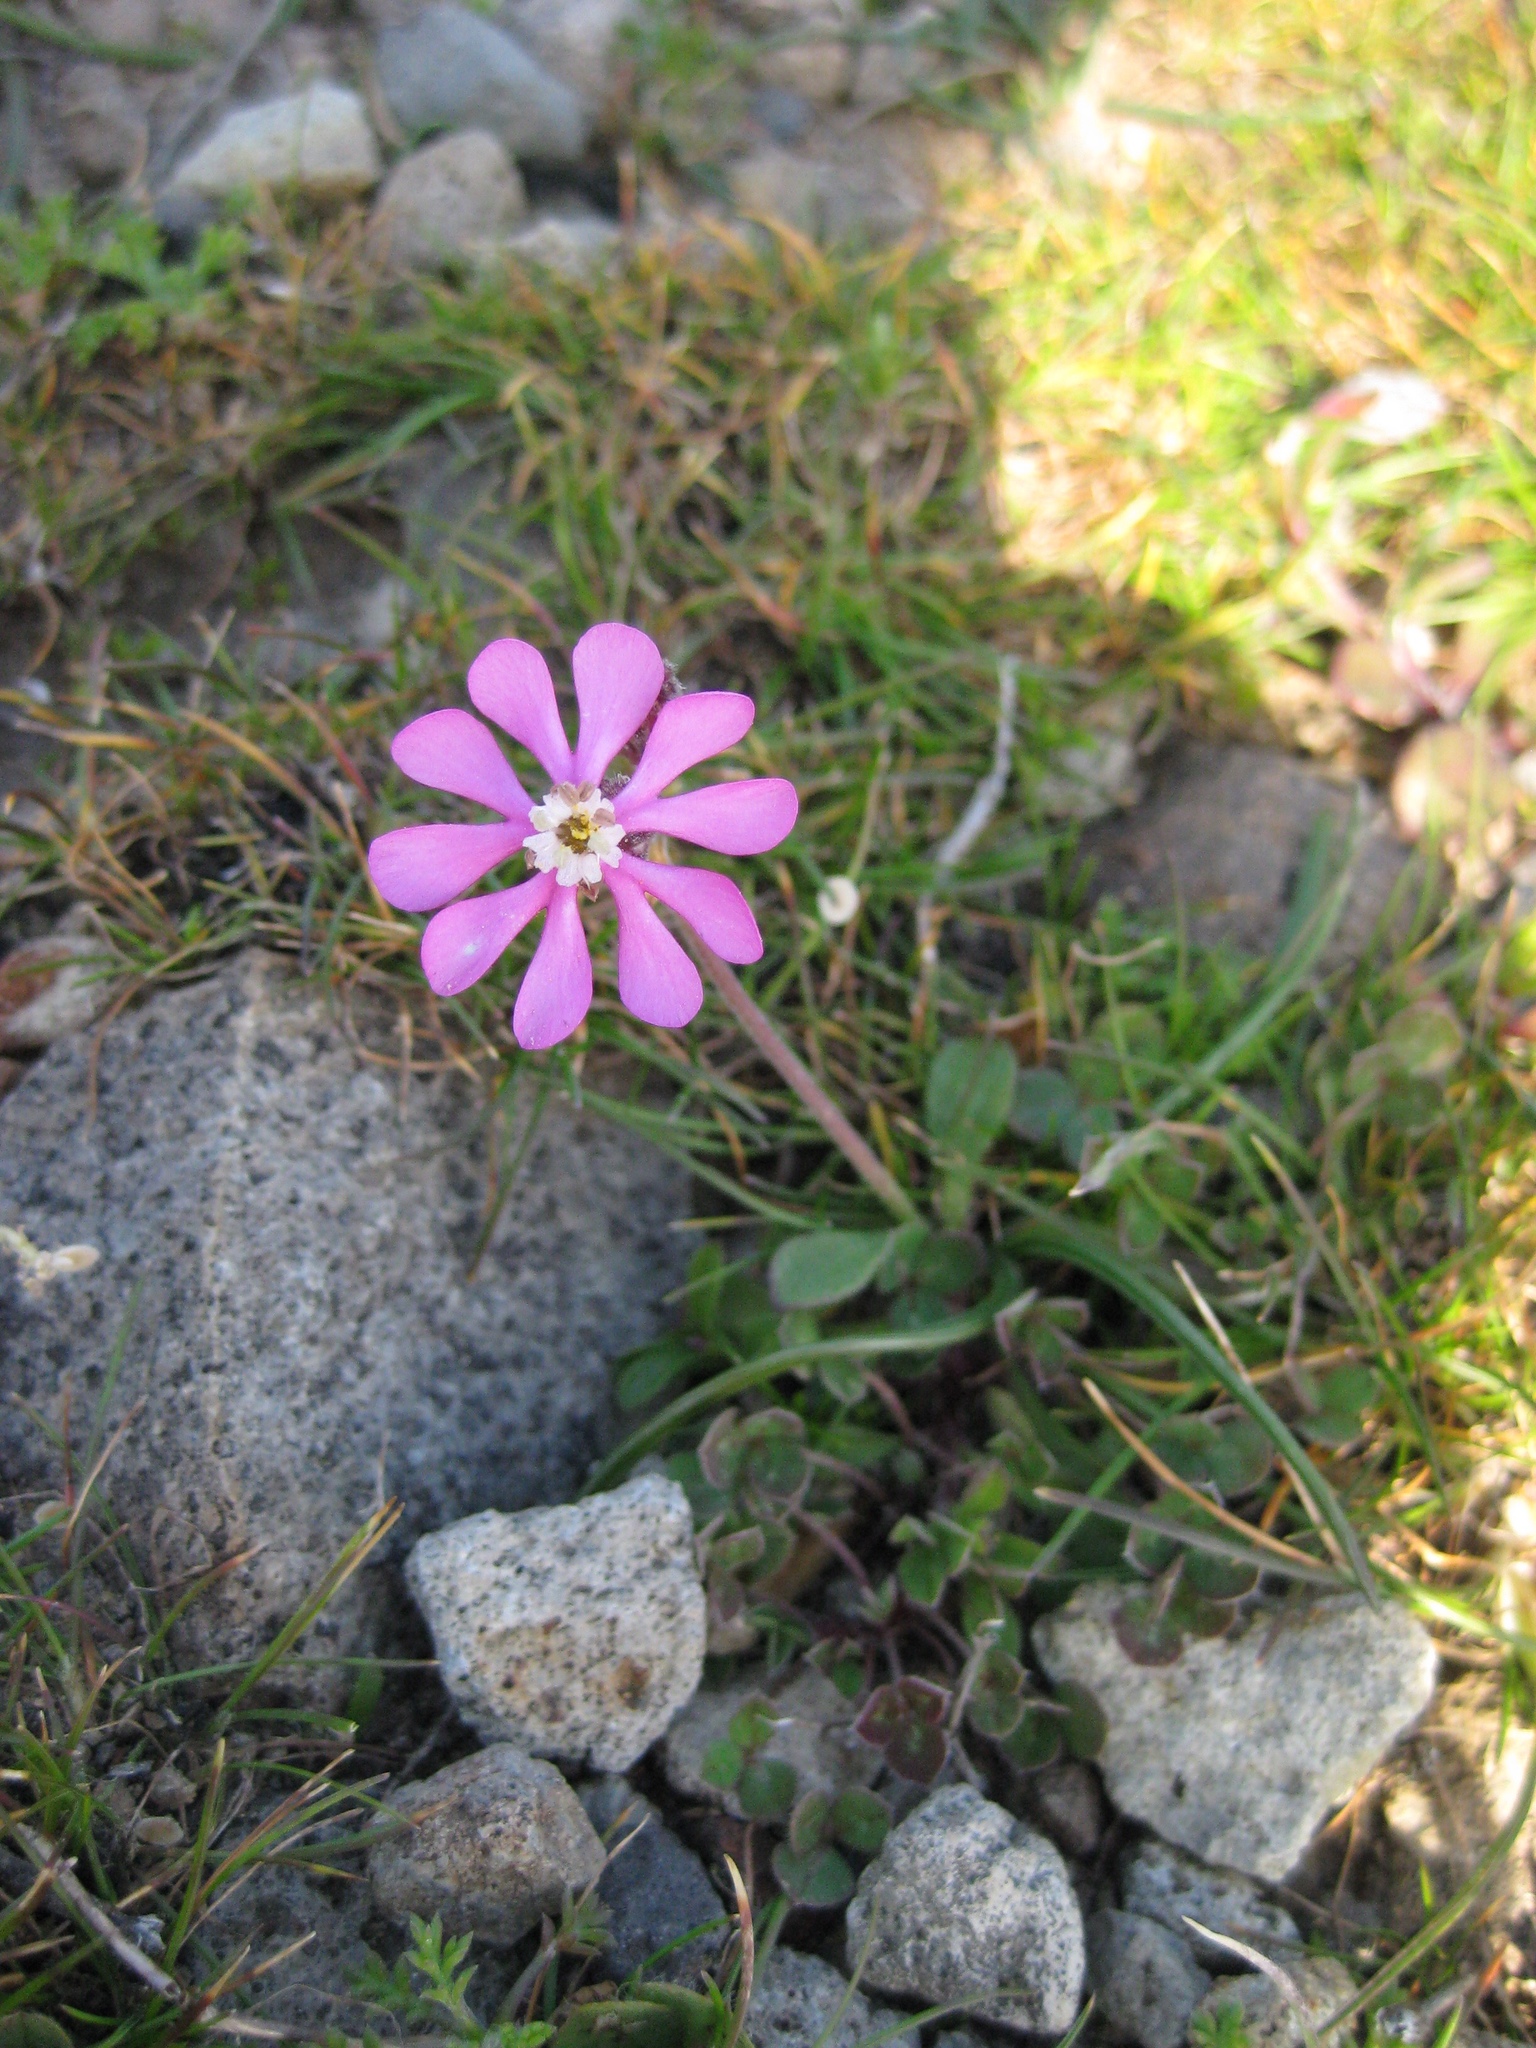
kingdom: Plantae
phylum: Tracheophyta
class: Magnoliopsida
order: Caryophyllales
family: Caryophyllaceae
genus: Silene
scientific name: Silene colorata
